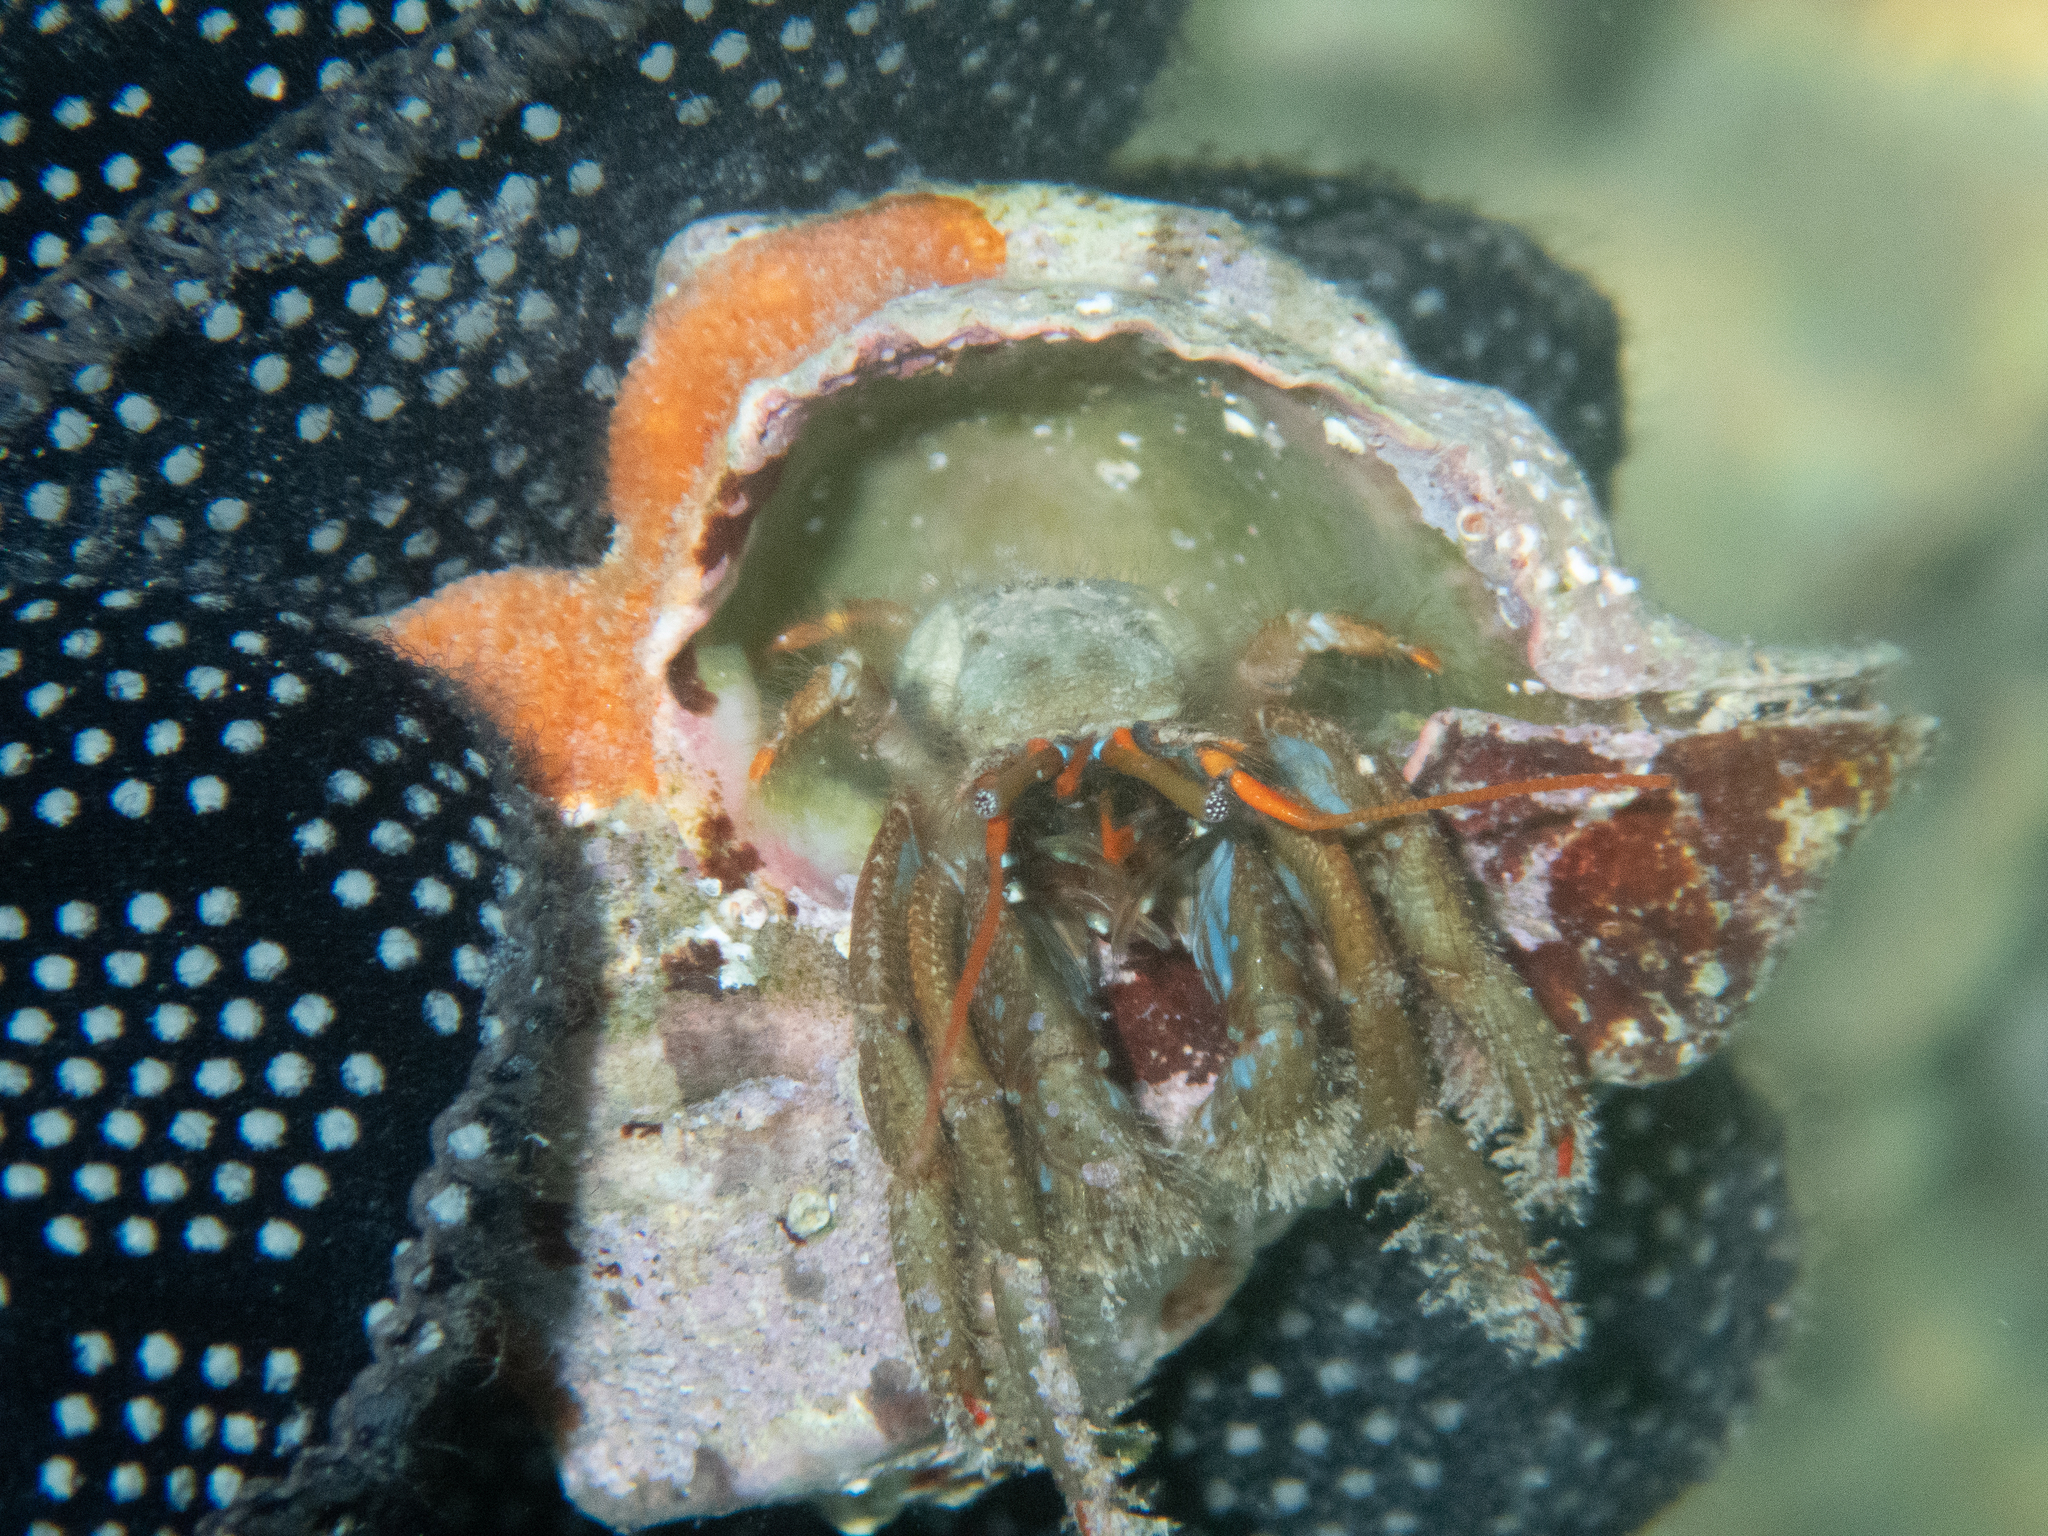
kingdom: Animalia
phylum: Arthropoda
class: Malacostraca
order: Decapoda
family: Diogenidae
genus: Clibanarius
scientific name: Clibanarius erythropus
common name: Hermit crab
